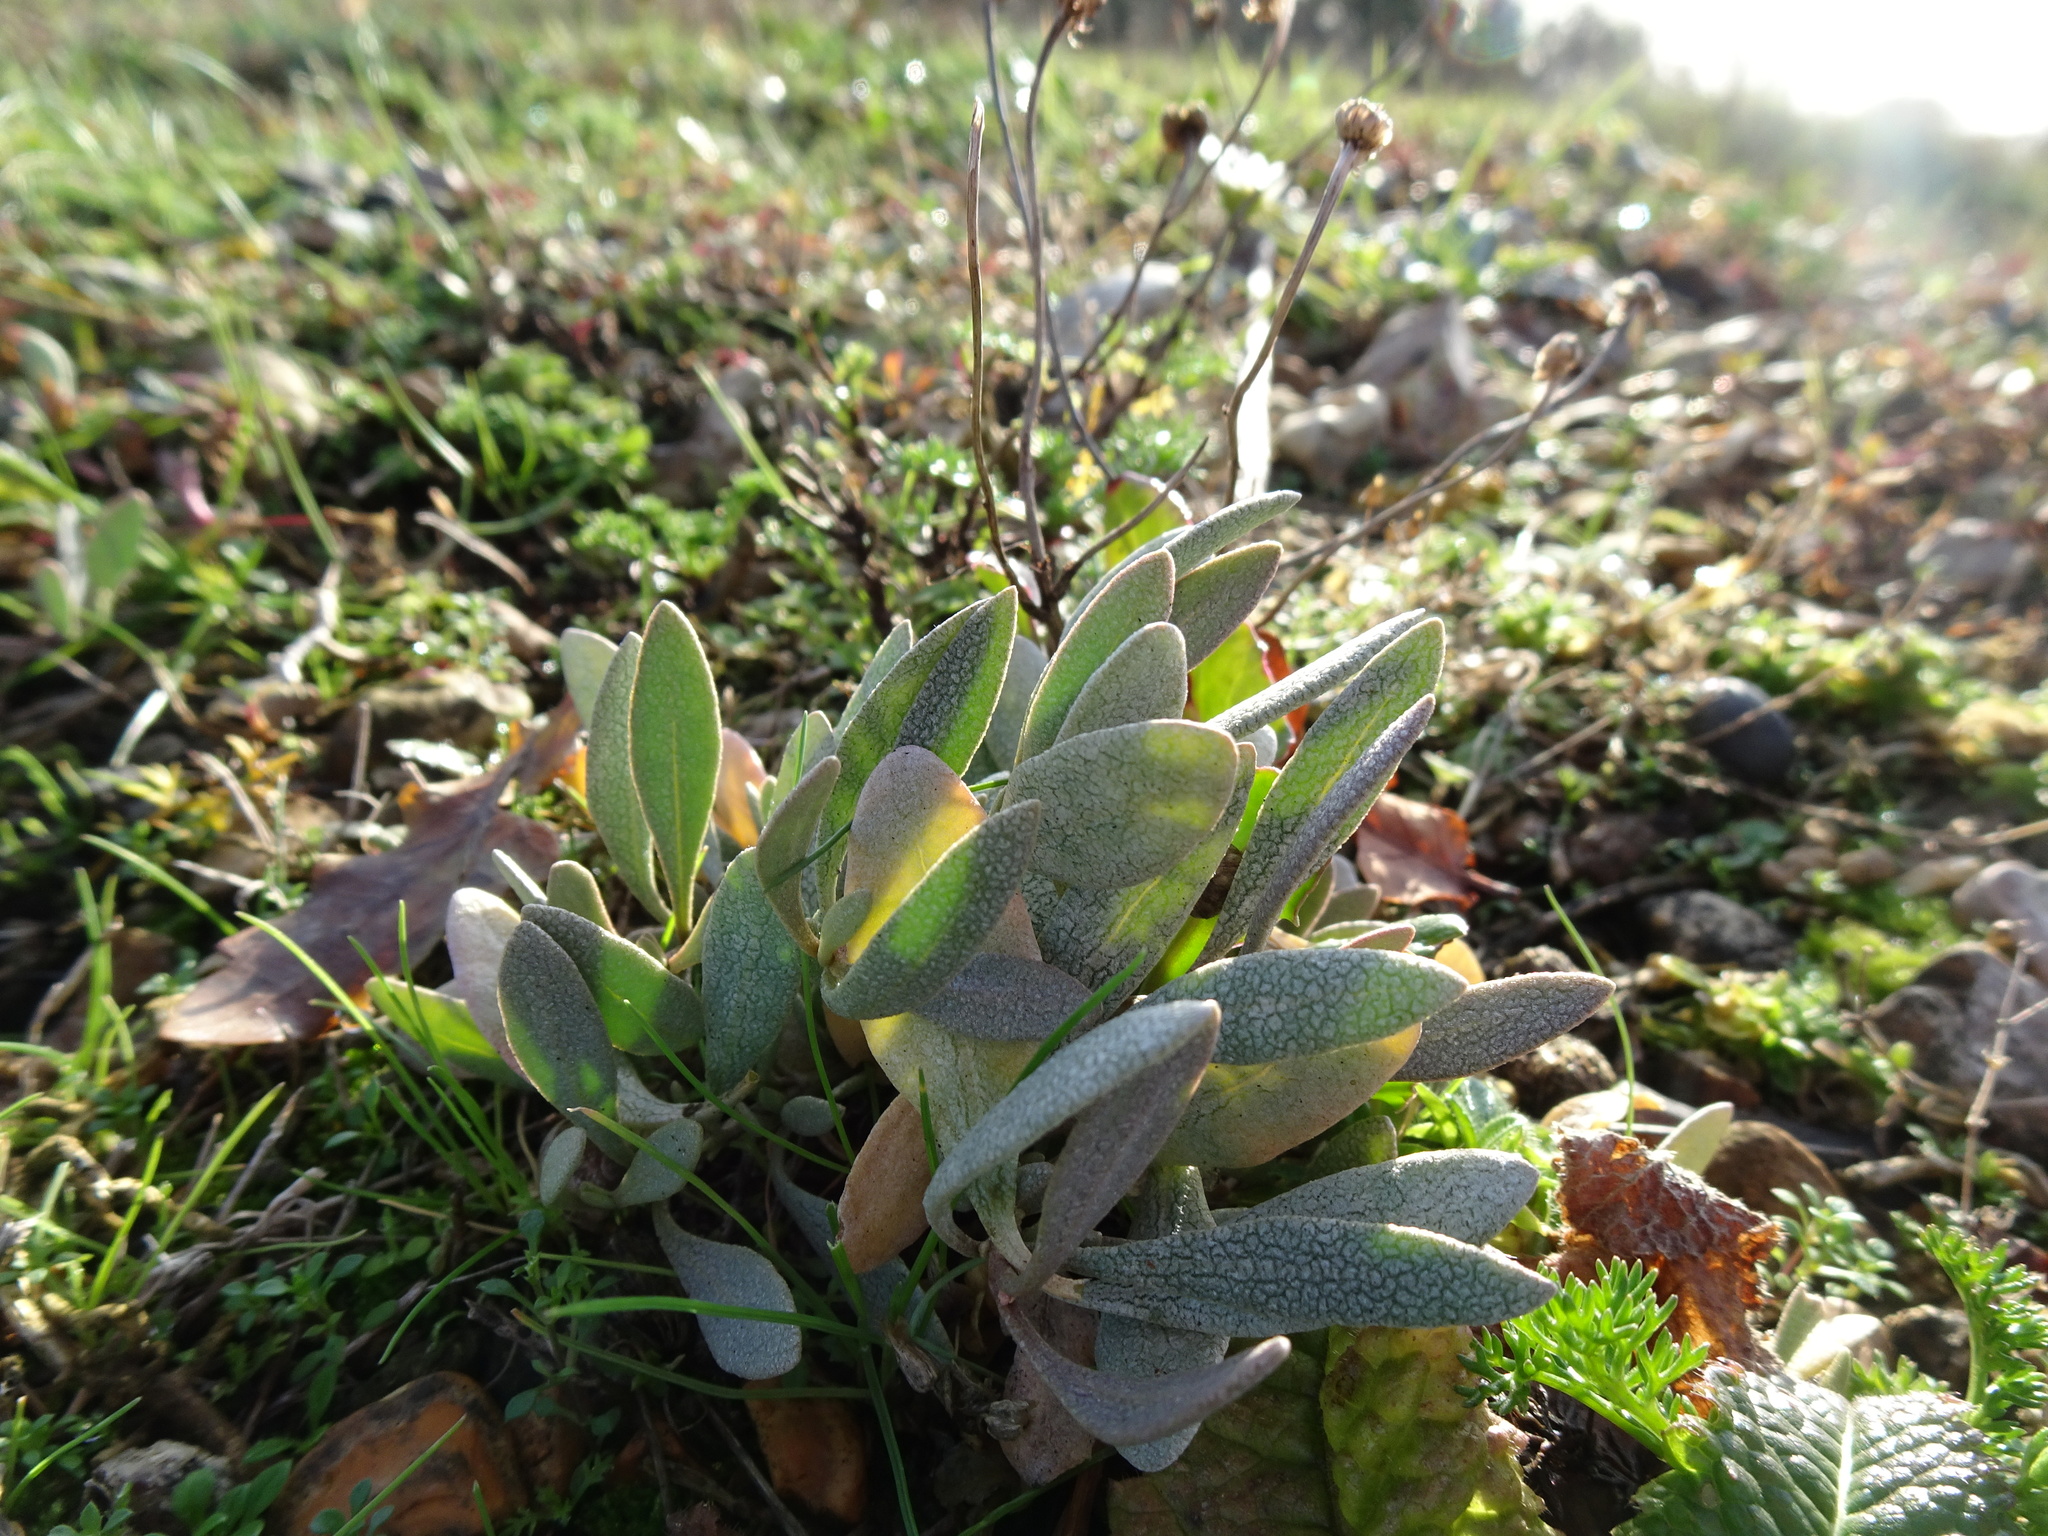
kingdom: Plantae
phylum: Tracheophyta
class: Magnoliopsida
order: Caryophyllales
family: Amaranthaceae
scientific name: Amaranthaceae
